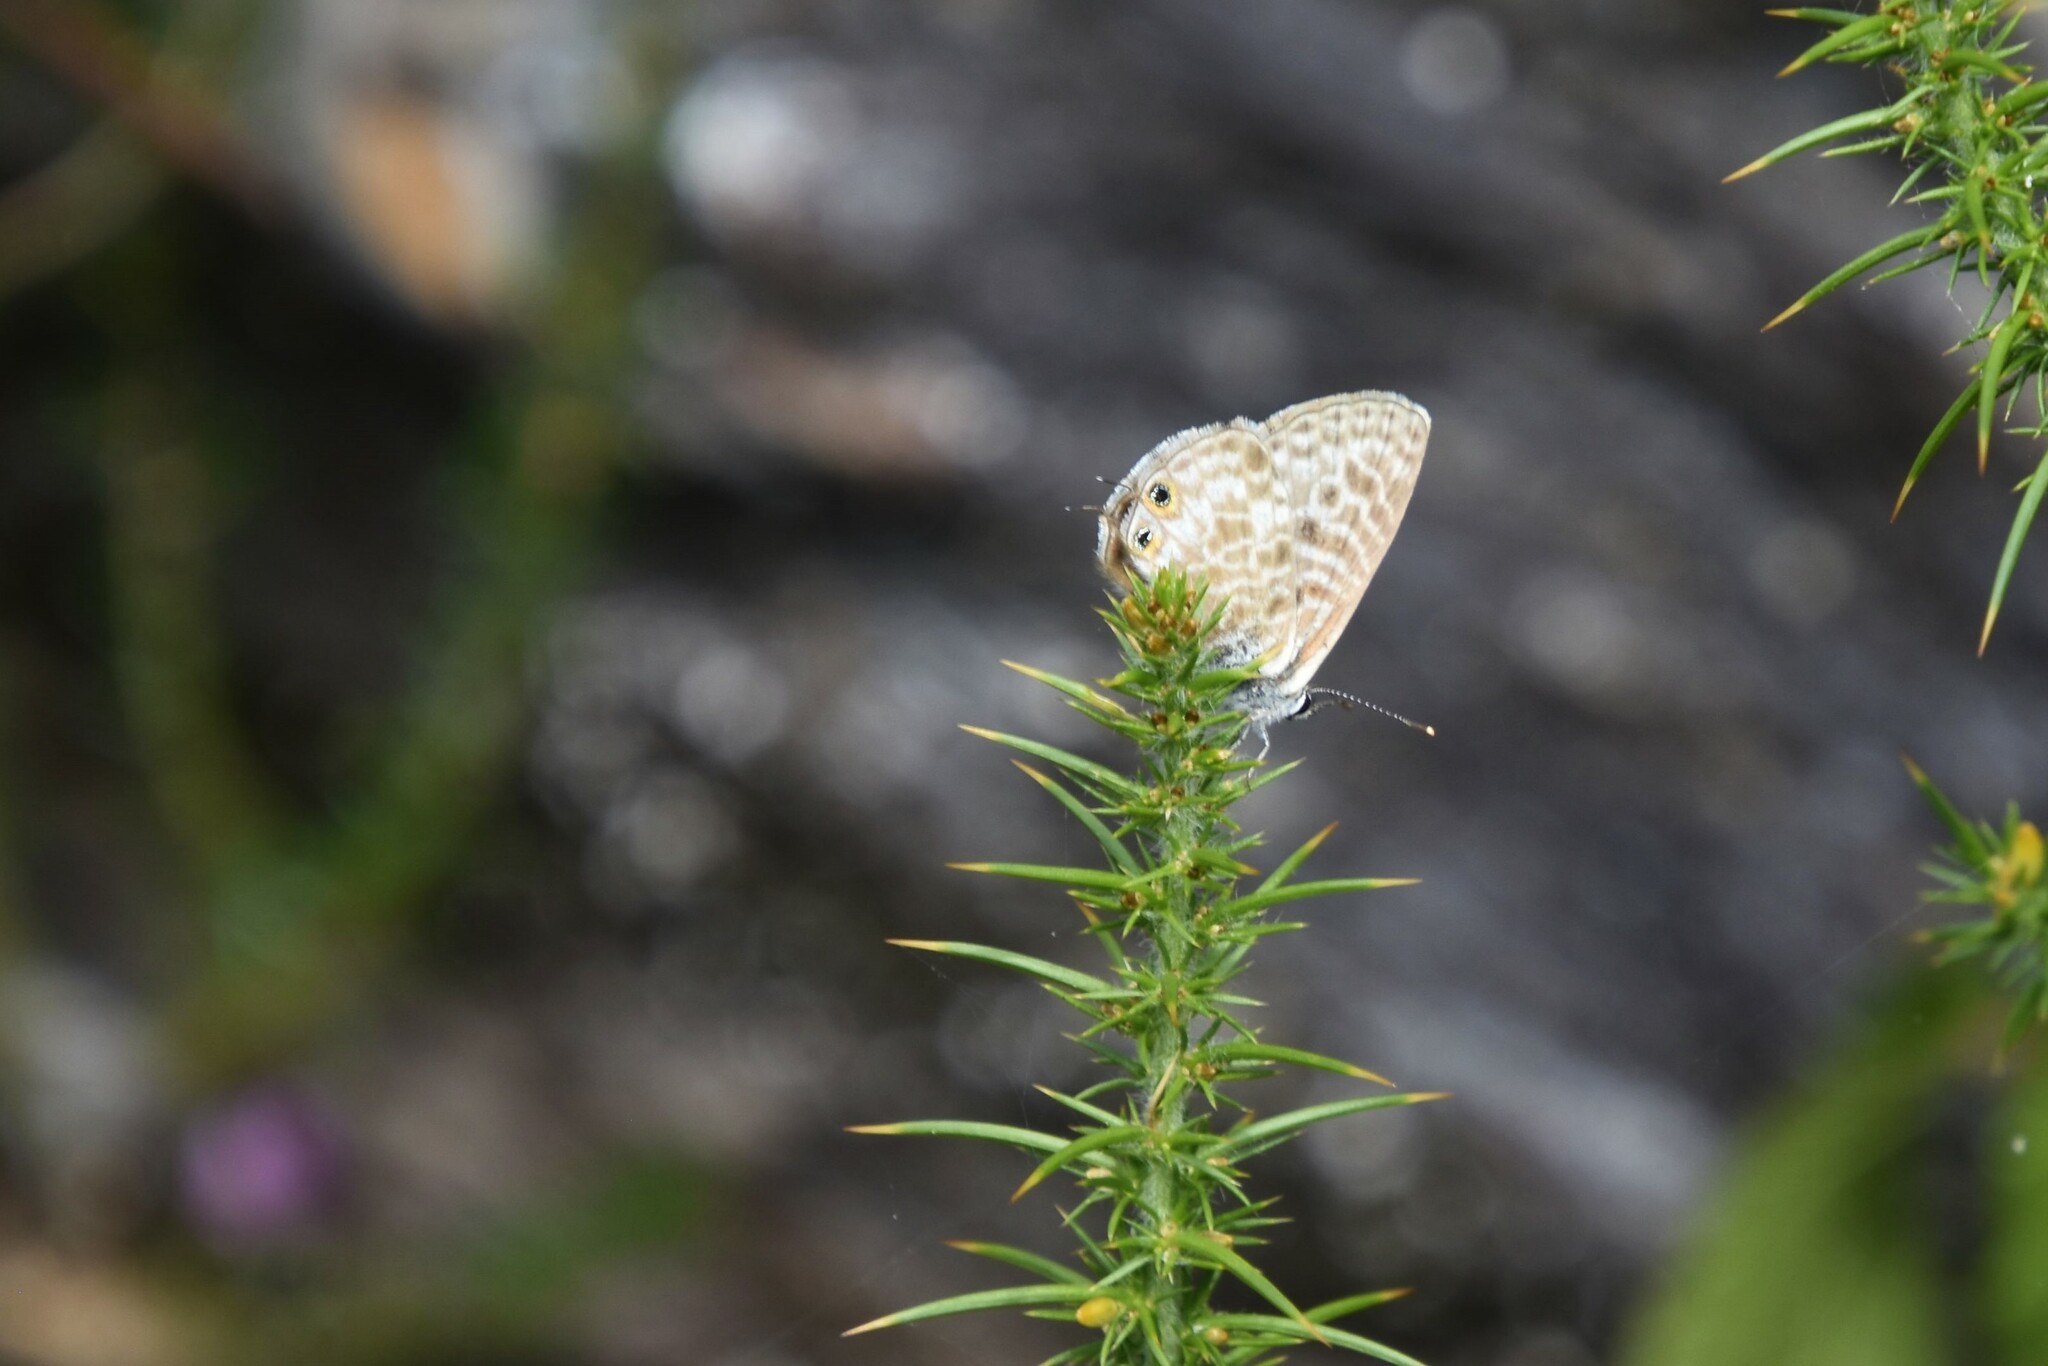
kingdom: Animalia
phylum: Arthropoda
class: Insecta
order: Lepidoptera
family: Lycaenidae
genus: Leptotes
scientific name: Leptotes pirithous
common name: Lang's short-tailed blue
